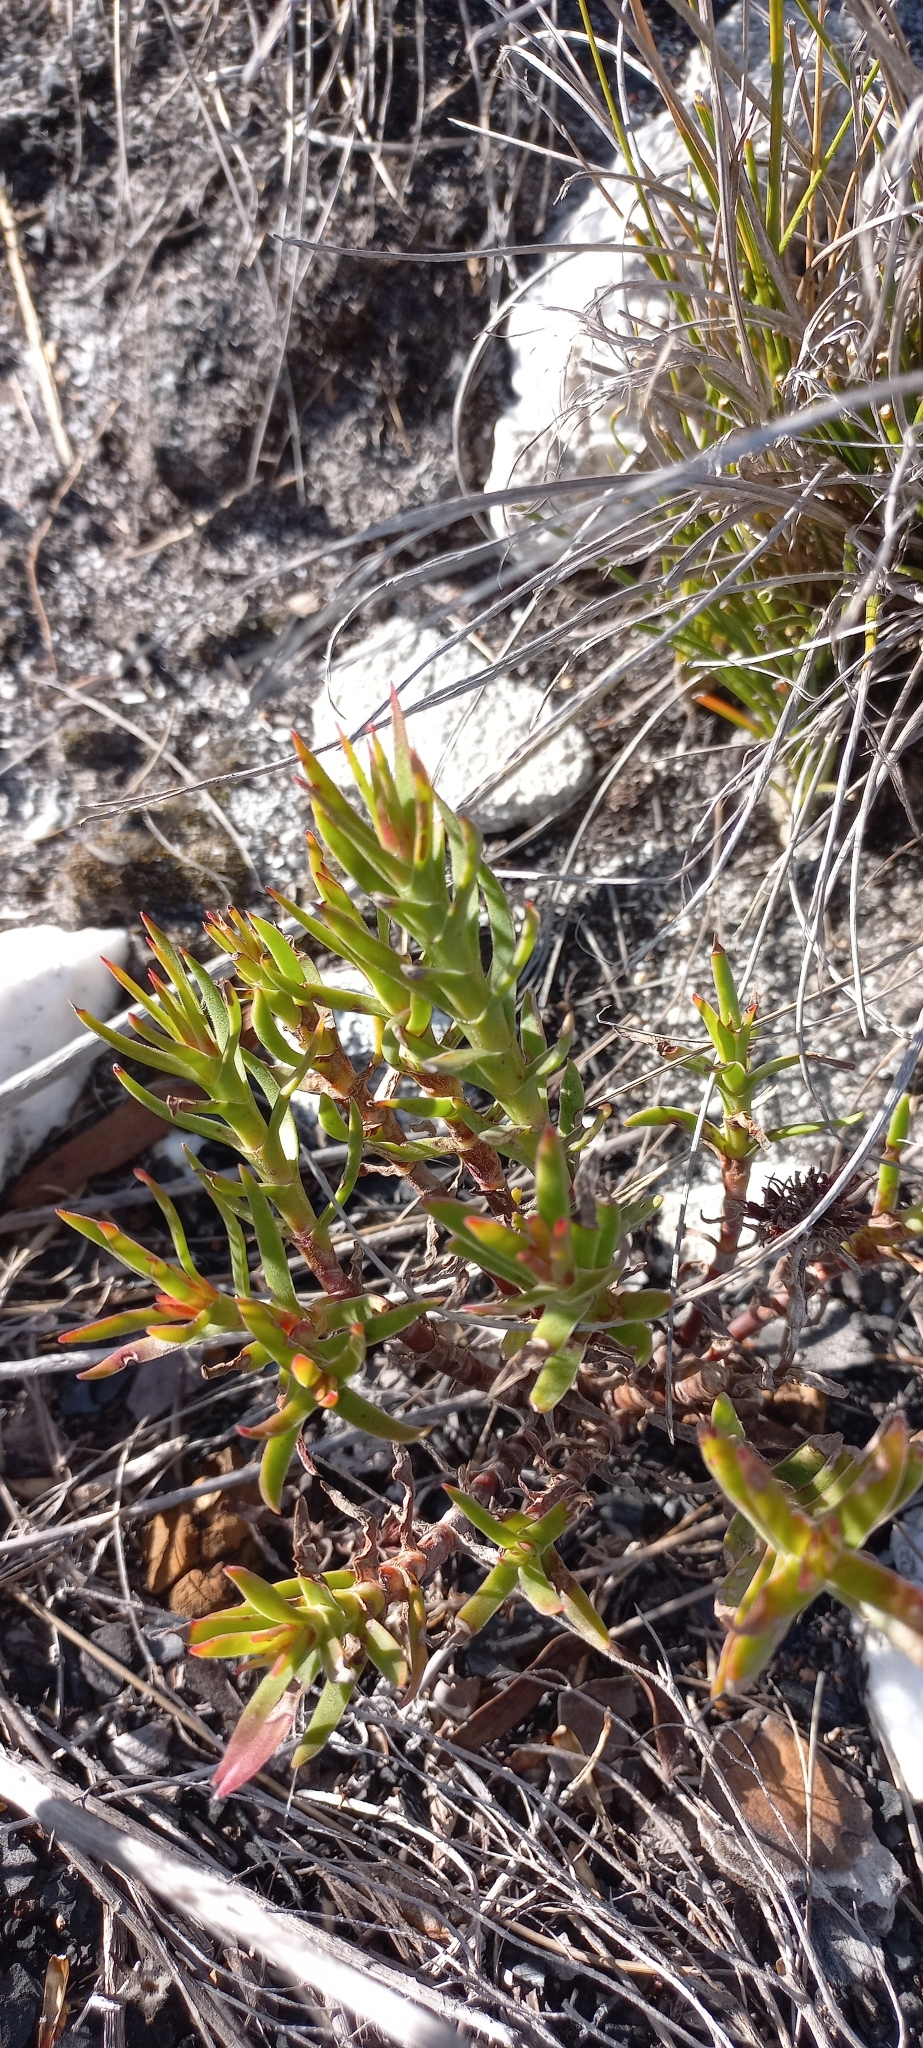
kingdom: Plantae
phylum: Tracheophyta
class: Magnoliopsida
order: Saxifragales
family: Crassulaceae
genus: Crassula
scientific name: Crassula fascicularis
